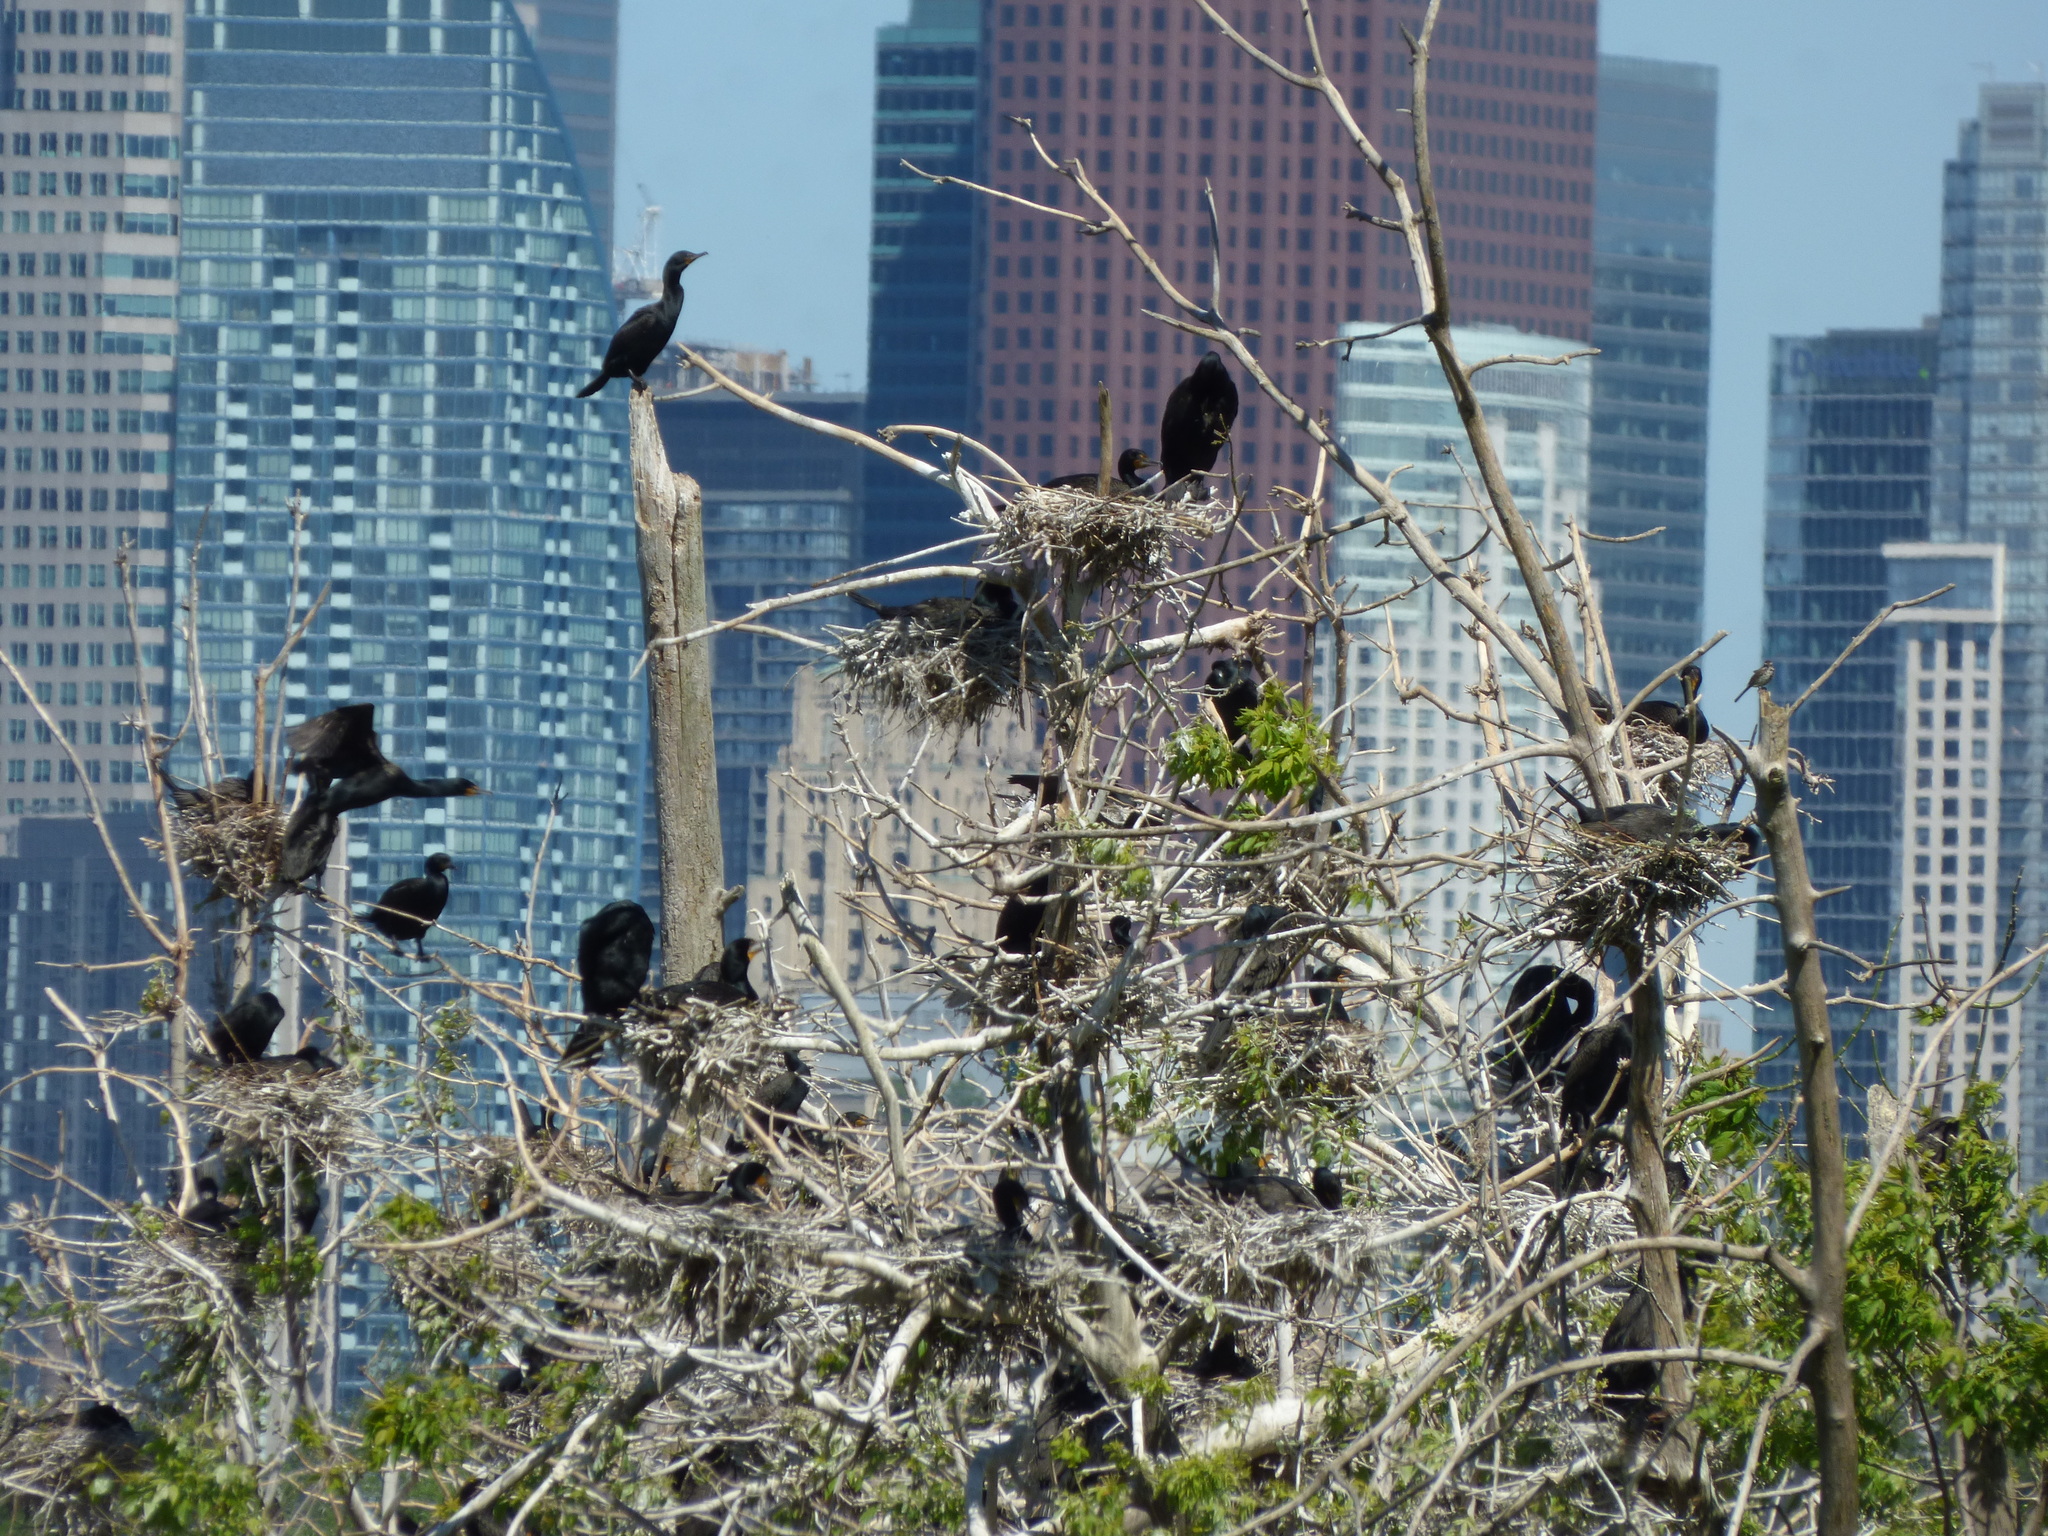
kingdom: Animalia
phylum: Chordata
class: Aves
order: Suliformes
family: Phalacrocoracidae
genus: Phalacrocorax
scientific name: Phalacrocorax auritus
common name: Double-crested cormorant
